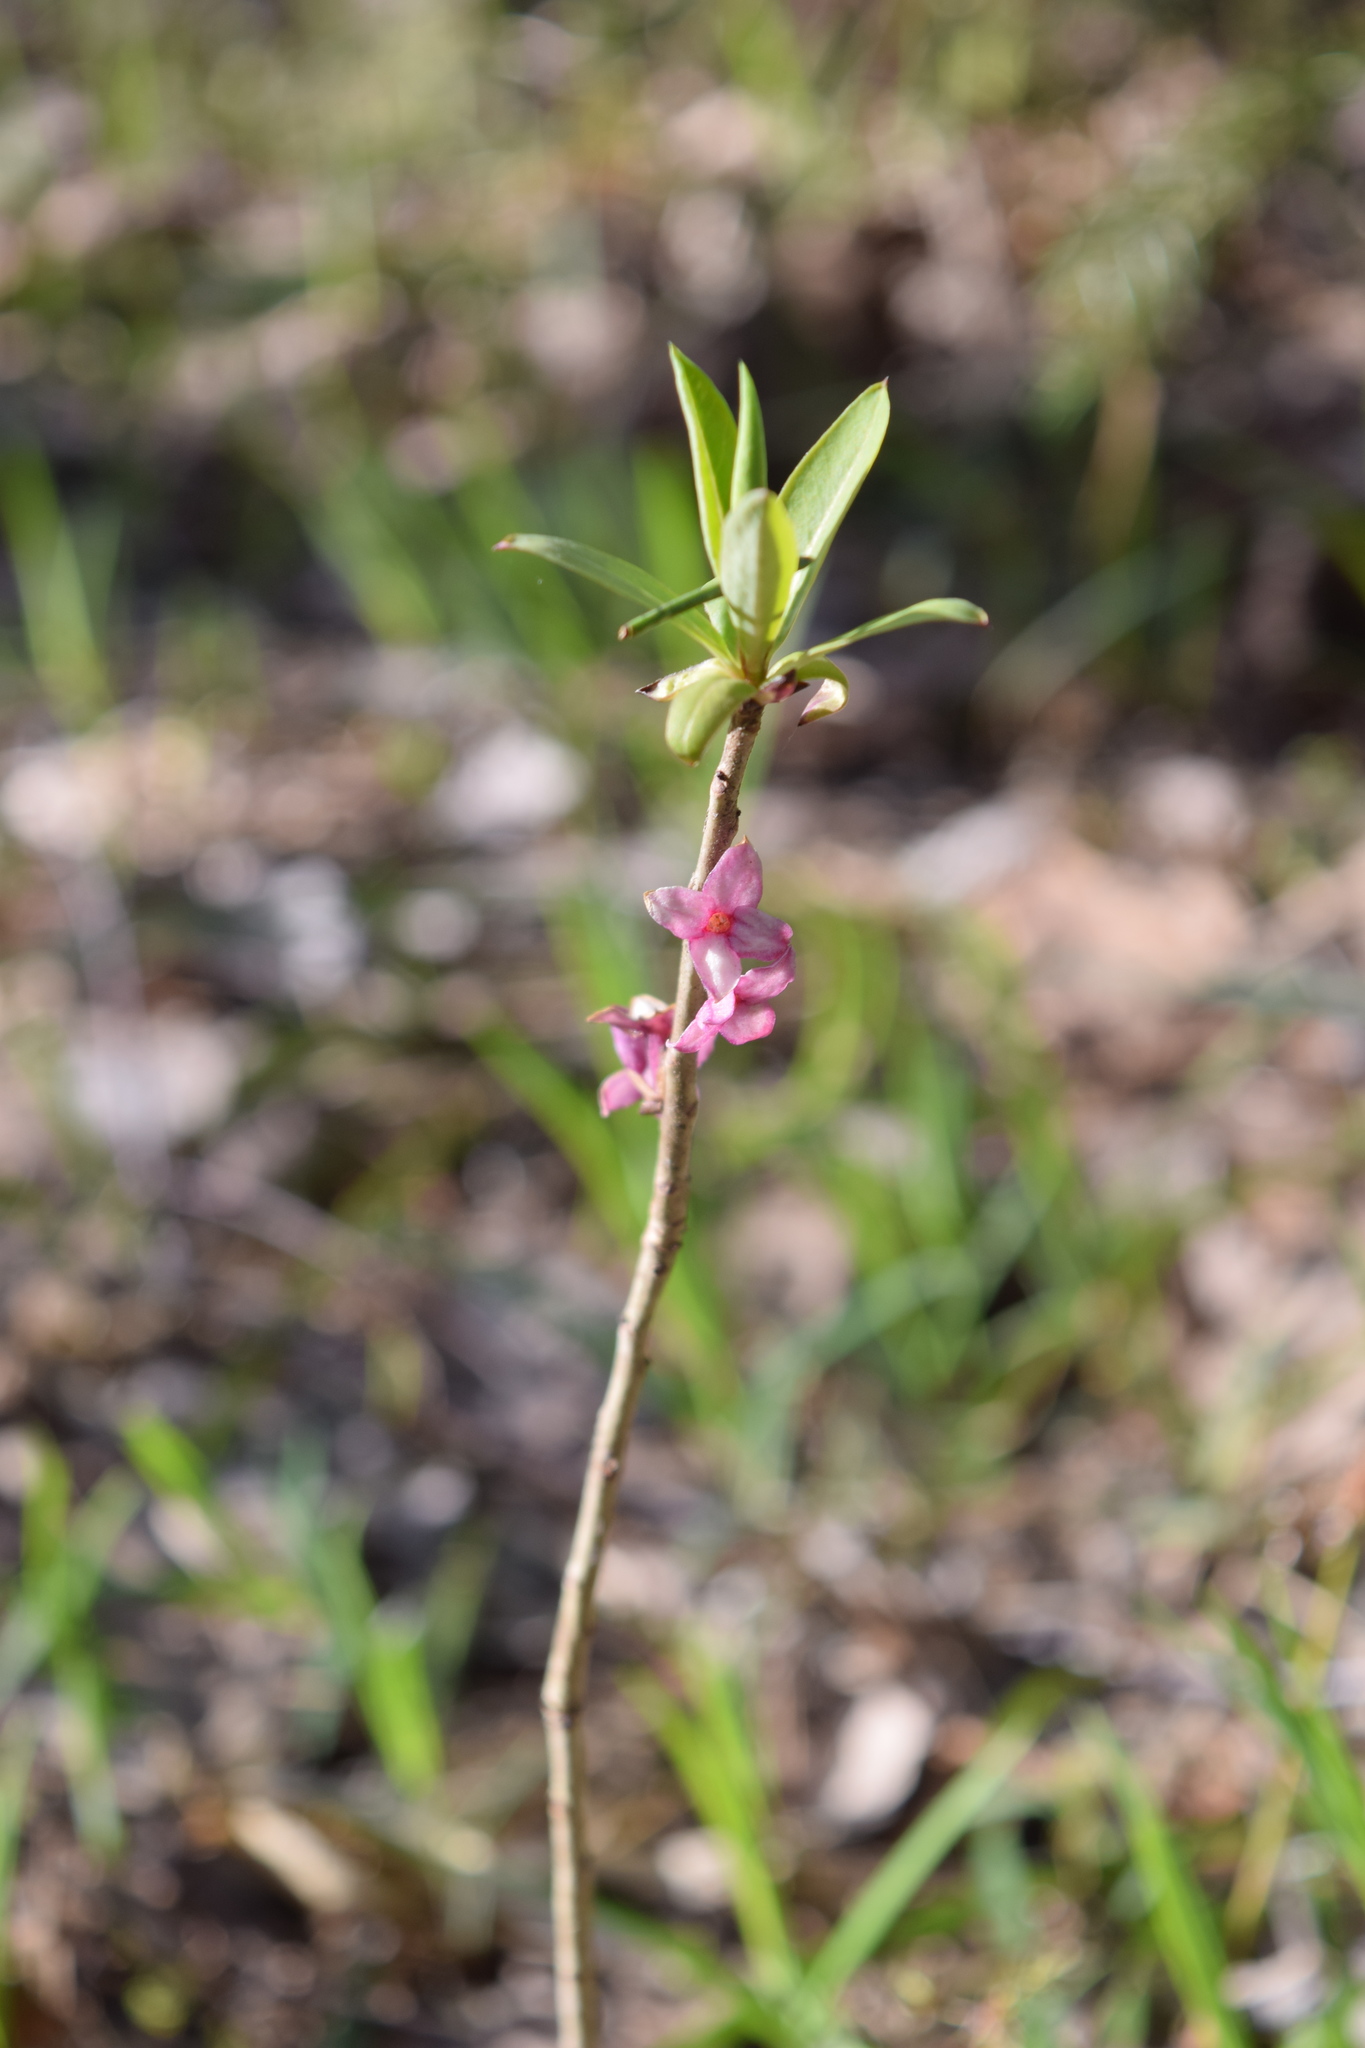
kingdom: Plantae
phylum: Tracheophyta
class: Magnoliopsida
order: Malvales
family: Thymelaeaceae
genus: Daphne
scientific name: Daphne mezereum
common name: Mezereon
